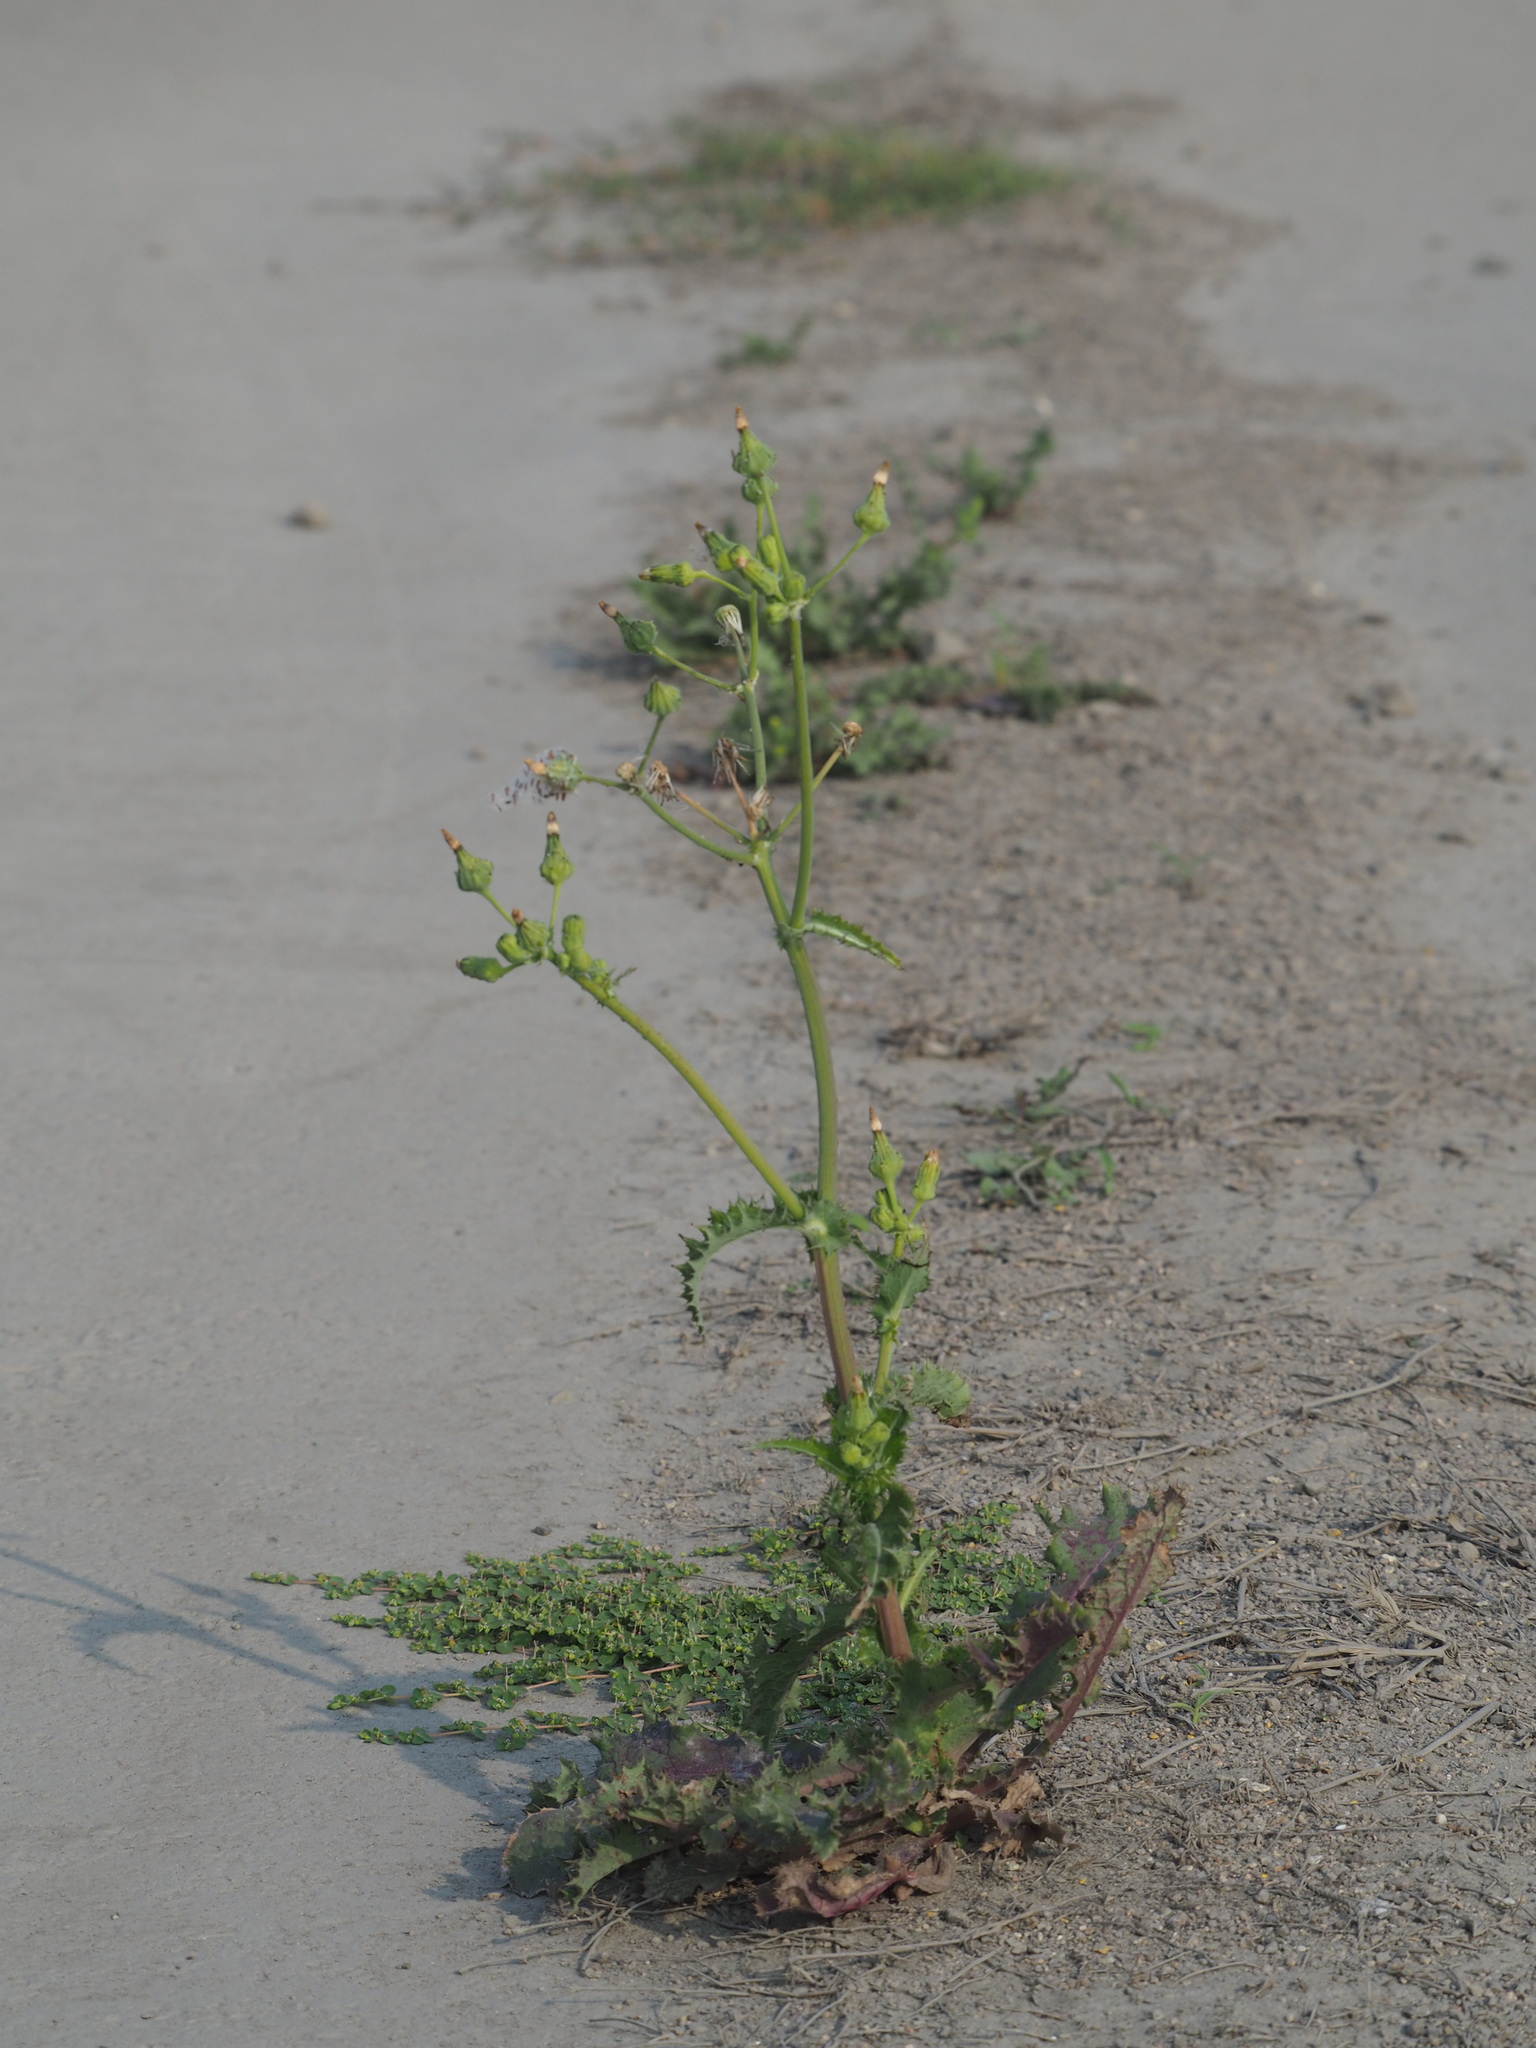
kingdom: Plantae
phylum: Tracheophyta
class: Magnoliopsida
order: Asterales
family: Asteraceae
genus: Sonchus
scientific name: Sonchus oleraceus
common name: Common sowthistle
